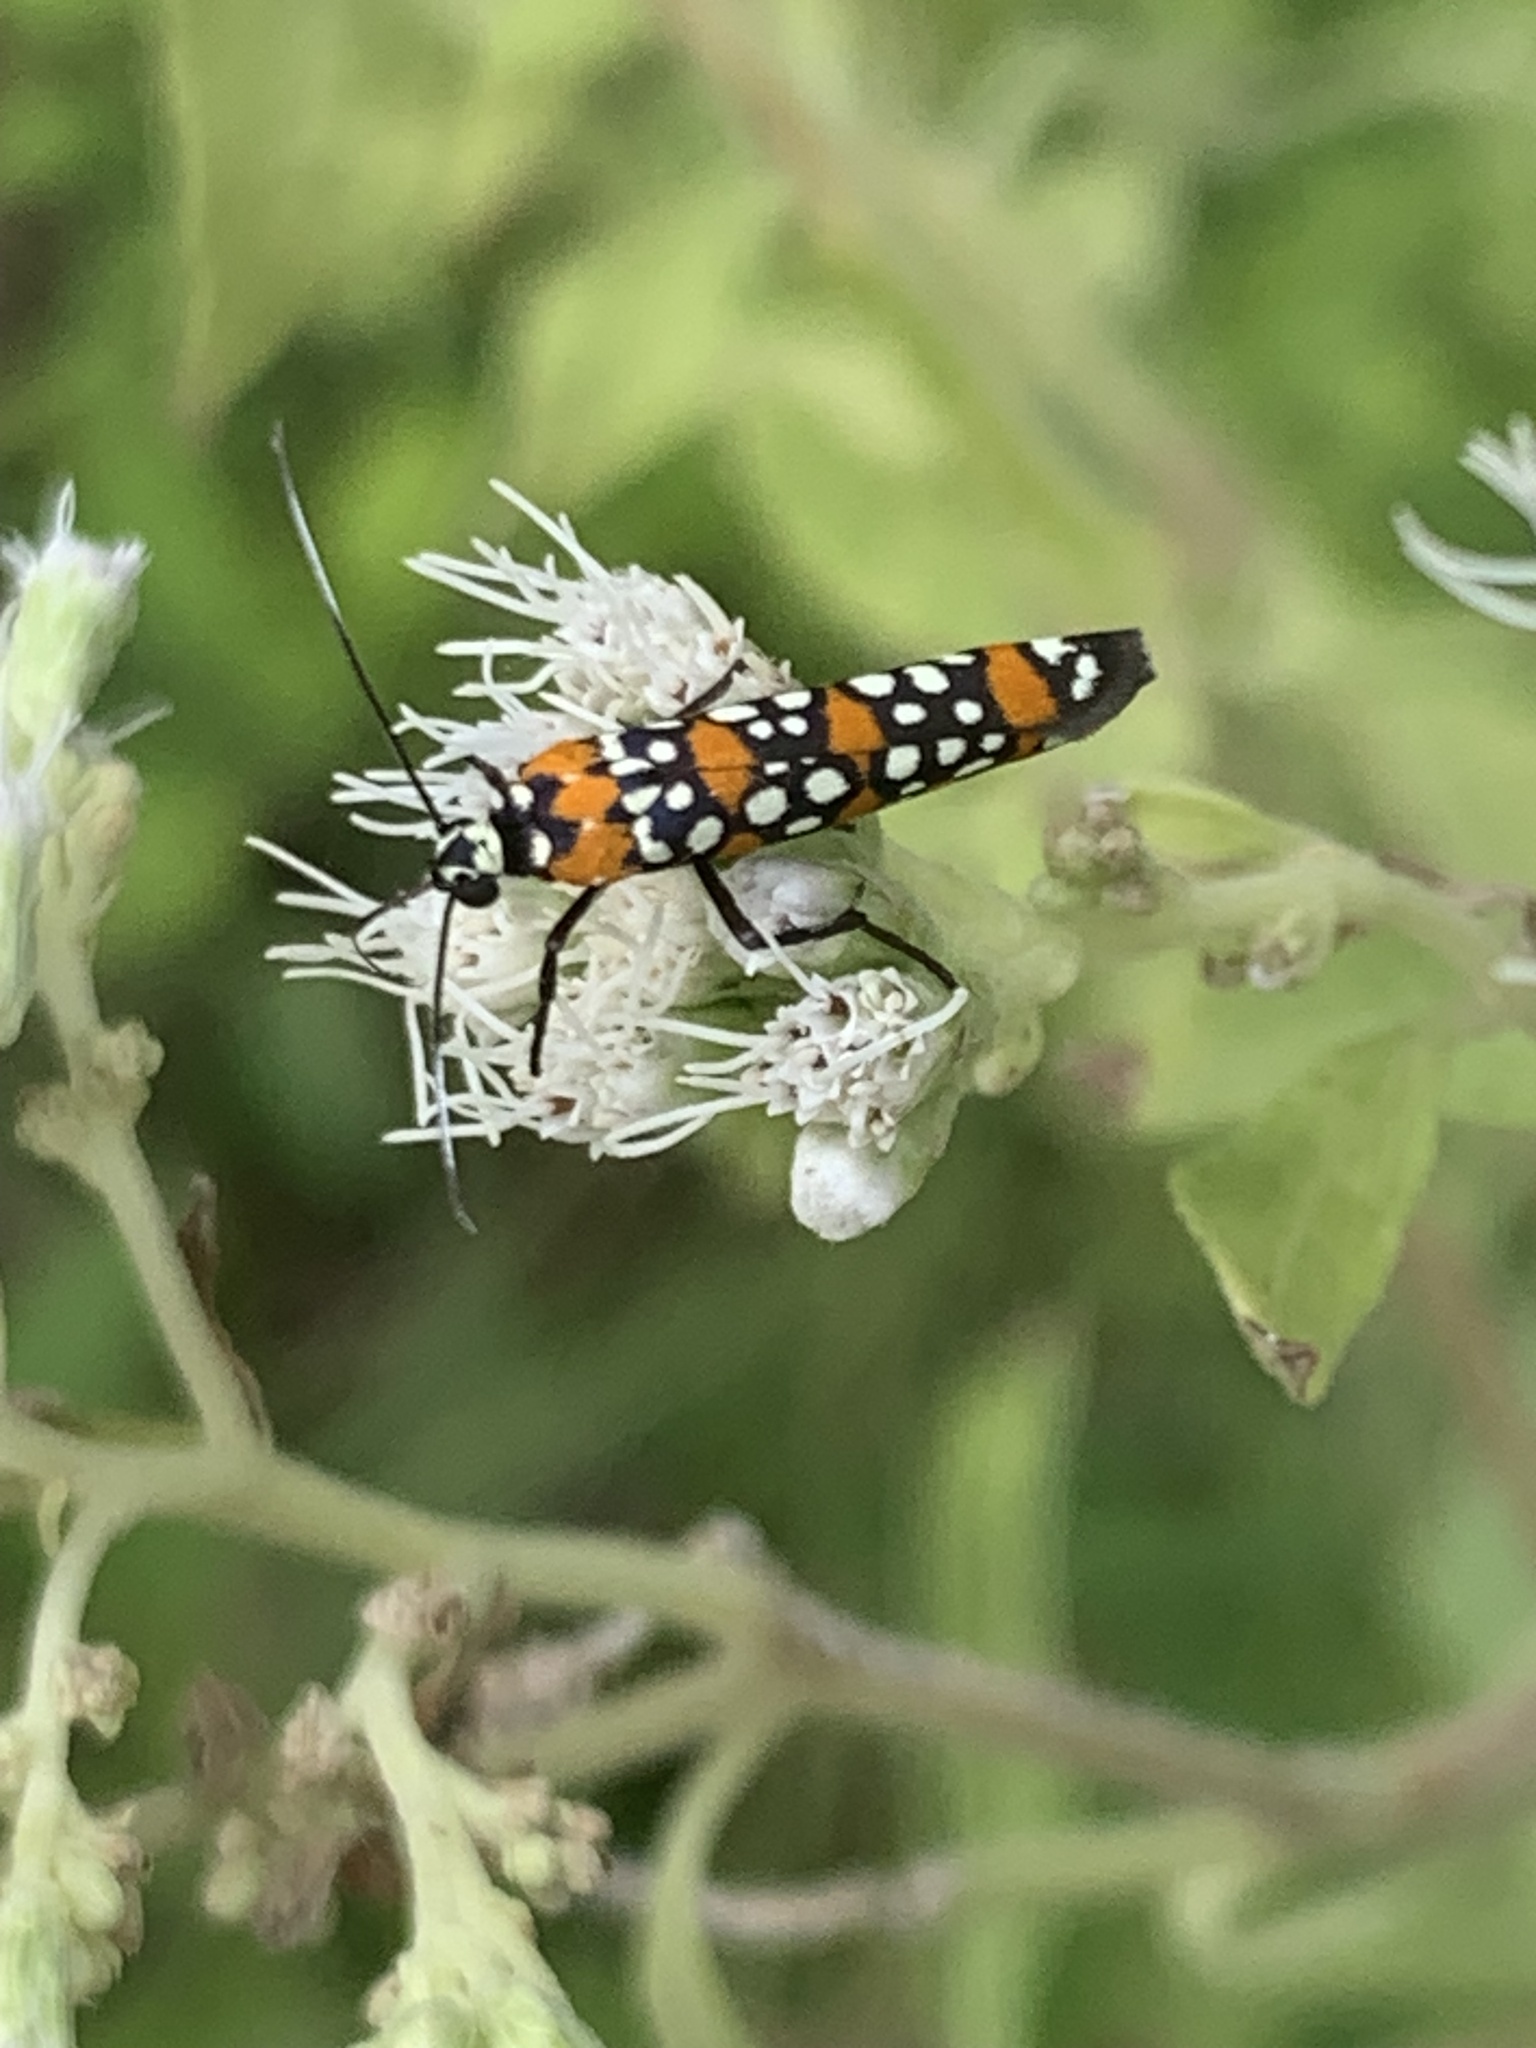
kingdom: Animalia
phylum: Arthropoda
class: Insecta
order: Lepidoptera
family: Attevidae
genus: Atteva
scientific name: Atteva punctella
